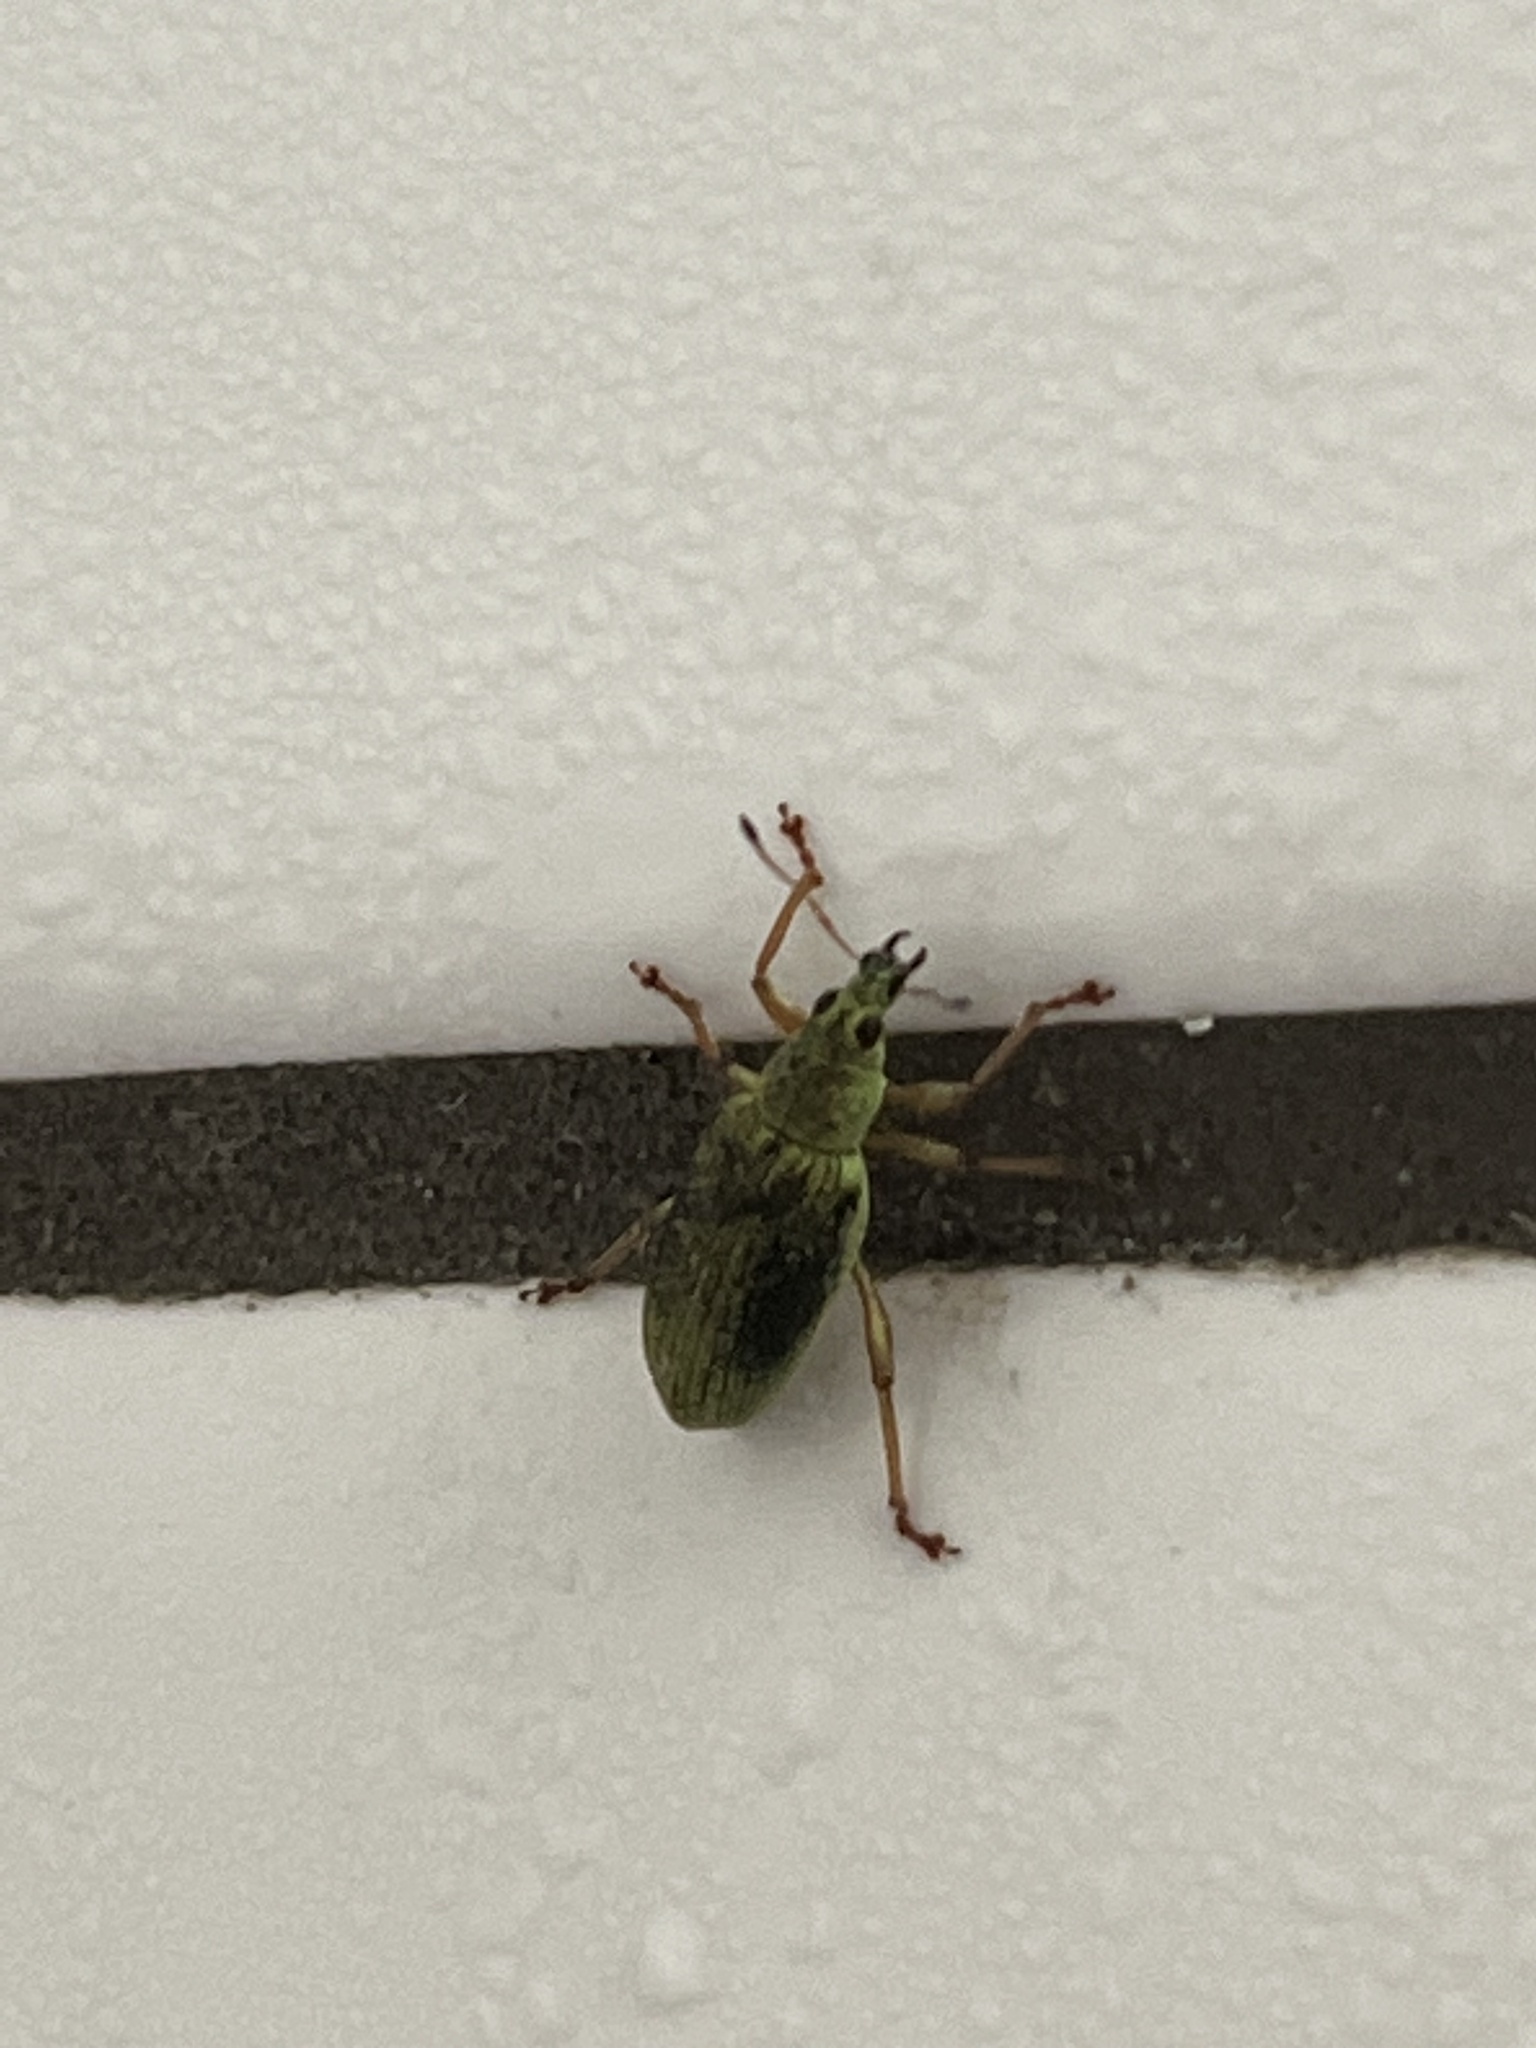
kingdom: Animalia
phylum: Arthropoda
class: Insecta
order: Coleoptera
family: Curculionidae
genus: Polydrusus
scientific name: Polydrusus formosus
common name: Weevil
